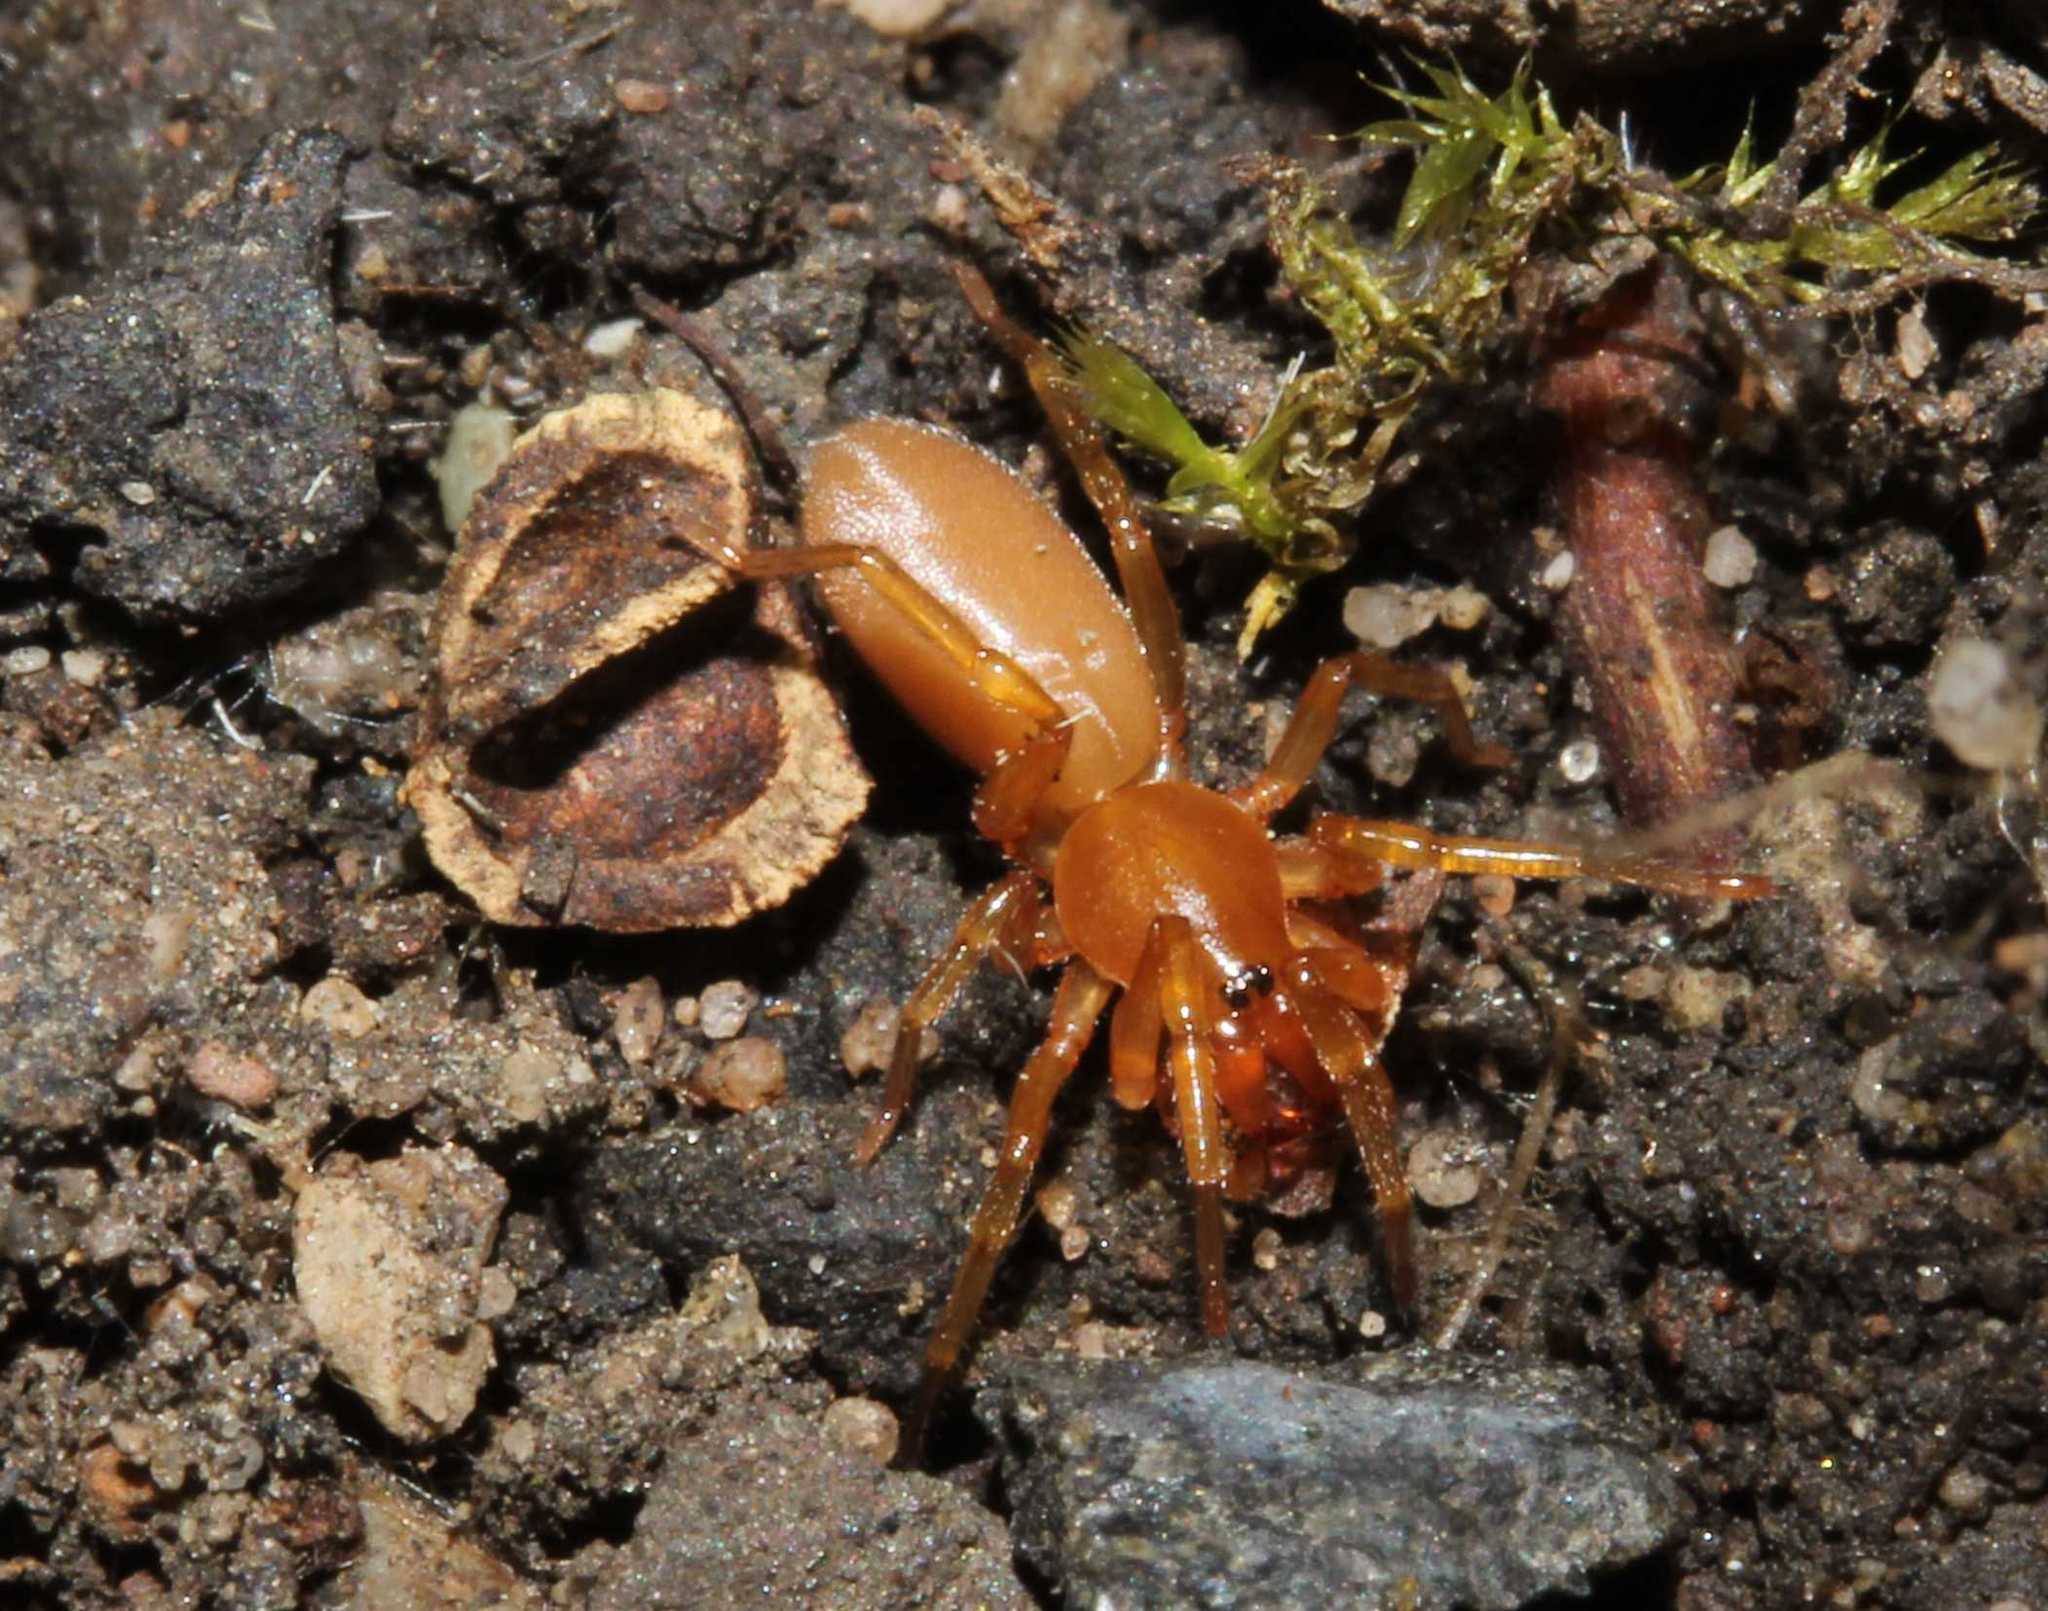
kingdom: Animalia
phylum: Arthropoda
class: Arachnida
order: Araneae
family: Dysderidae
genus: Dysdera
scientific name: Dysdera
